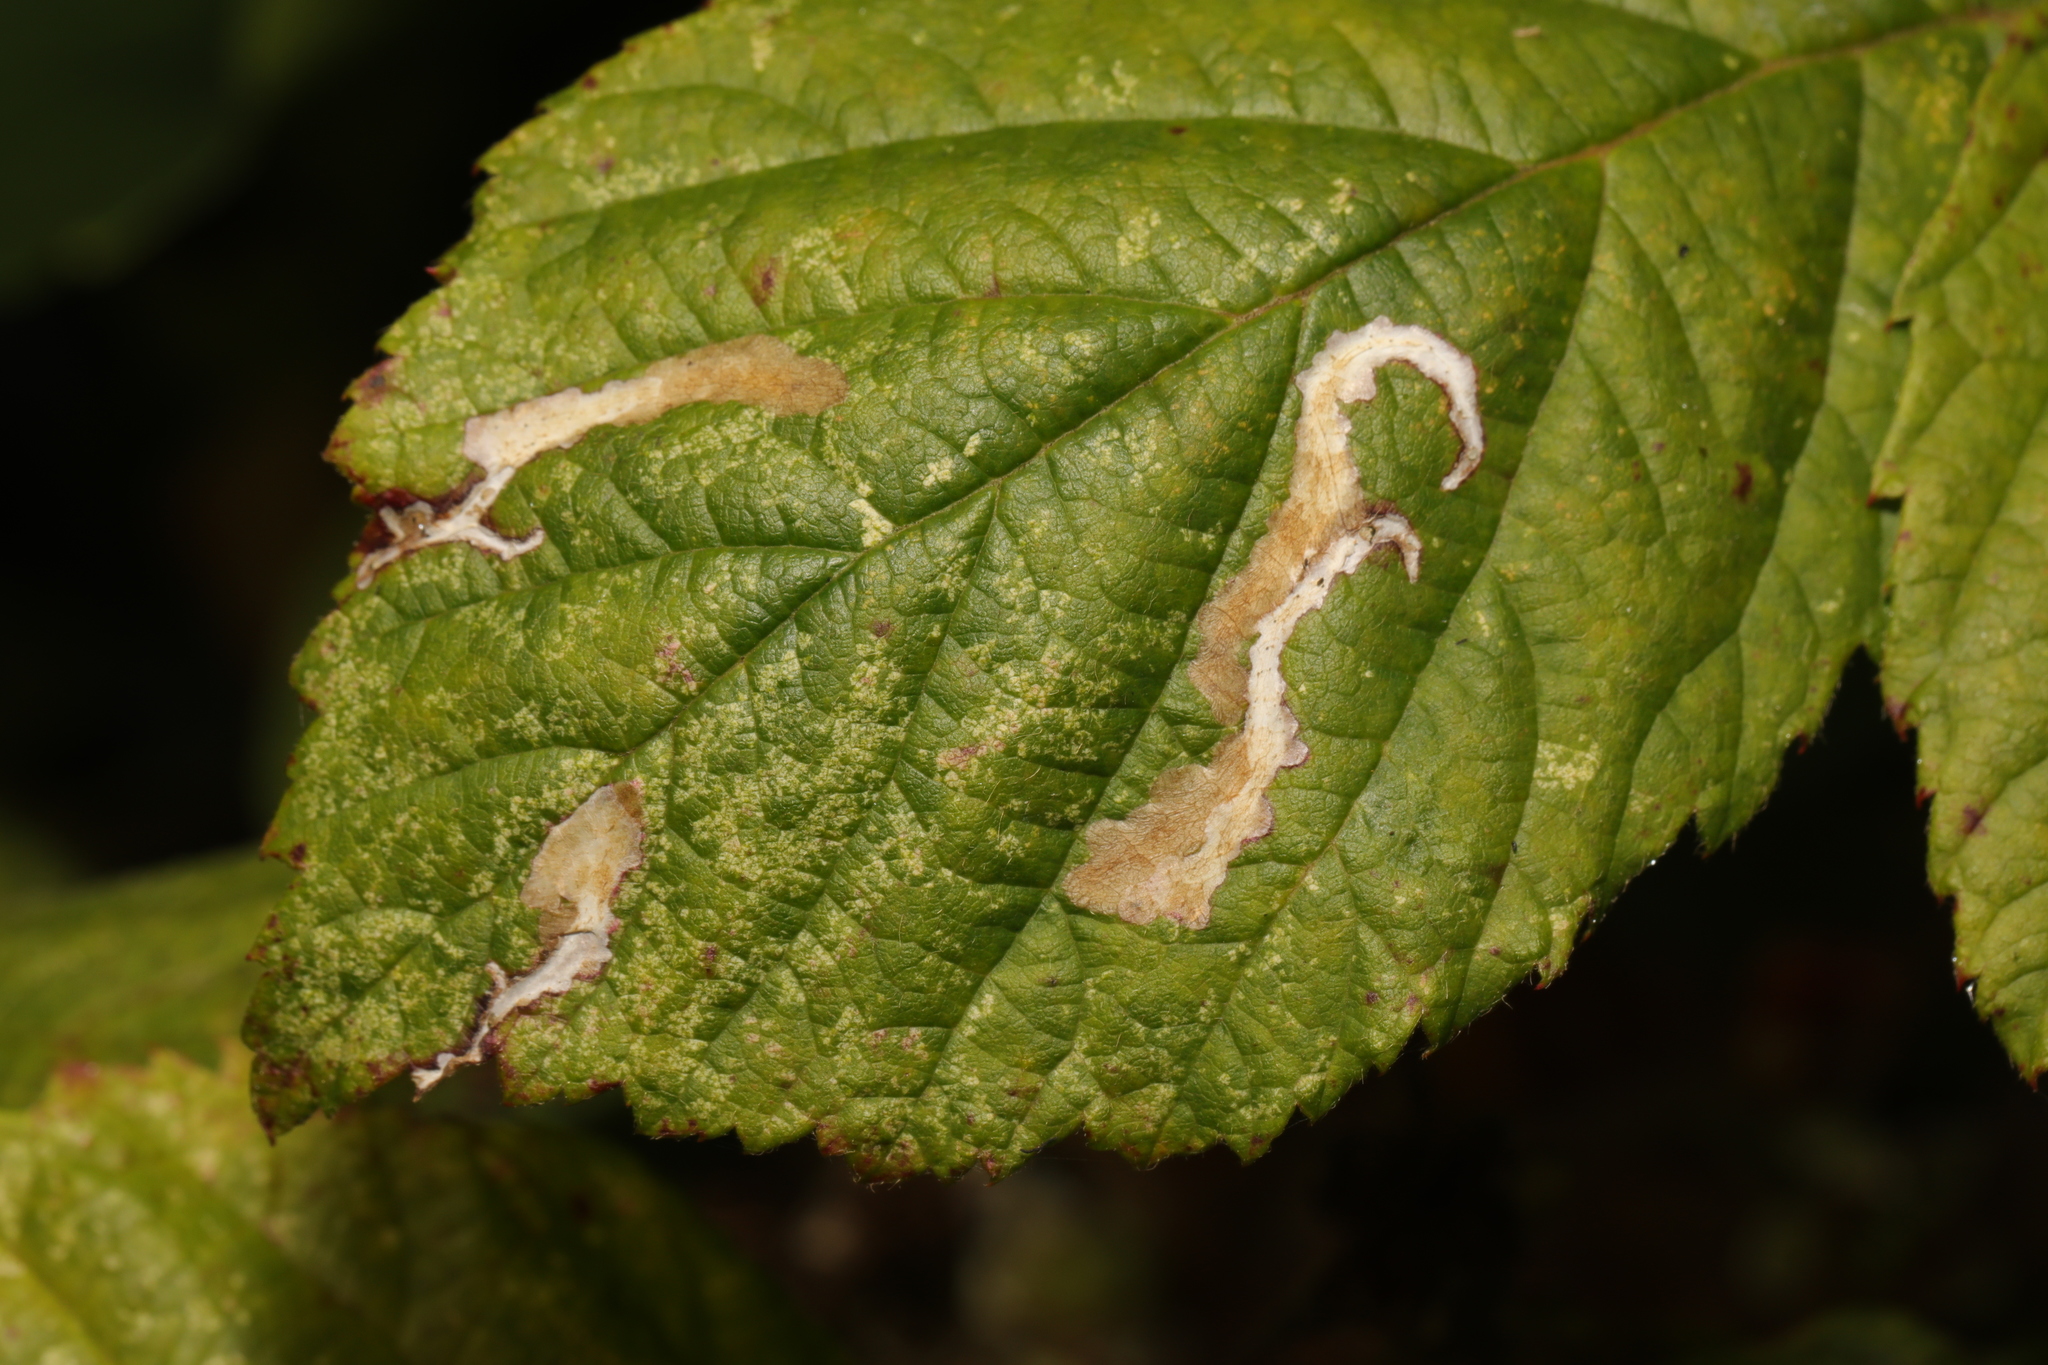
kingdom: Animalia
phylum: Arthropoda
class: Insecta
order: Lepidoptera
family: Tischeriidae
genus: Coptotriche
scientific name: Coptotriche marginea
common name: Bordered carl
